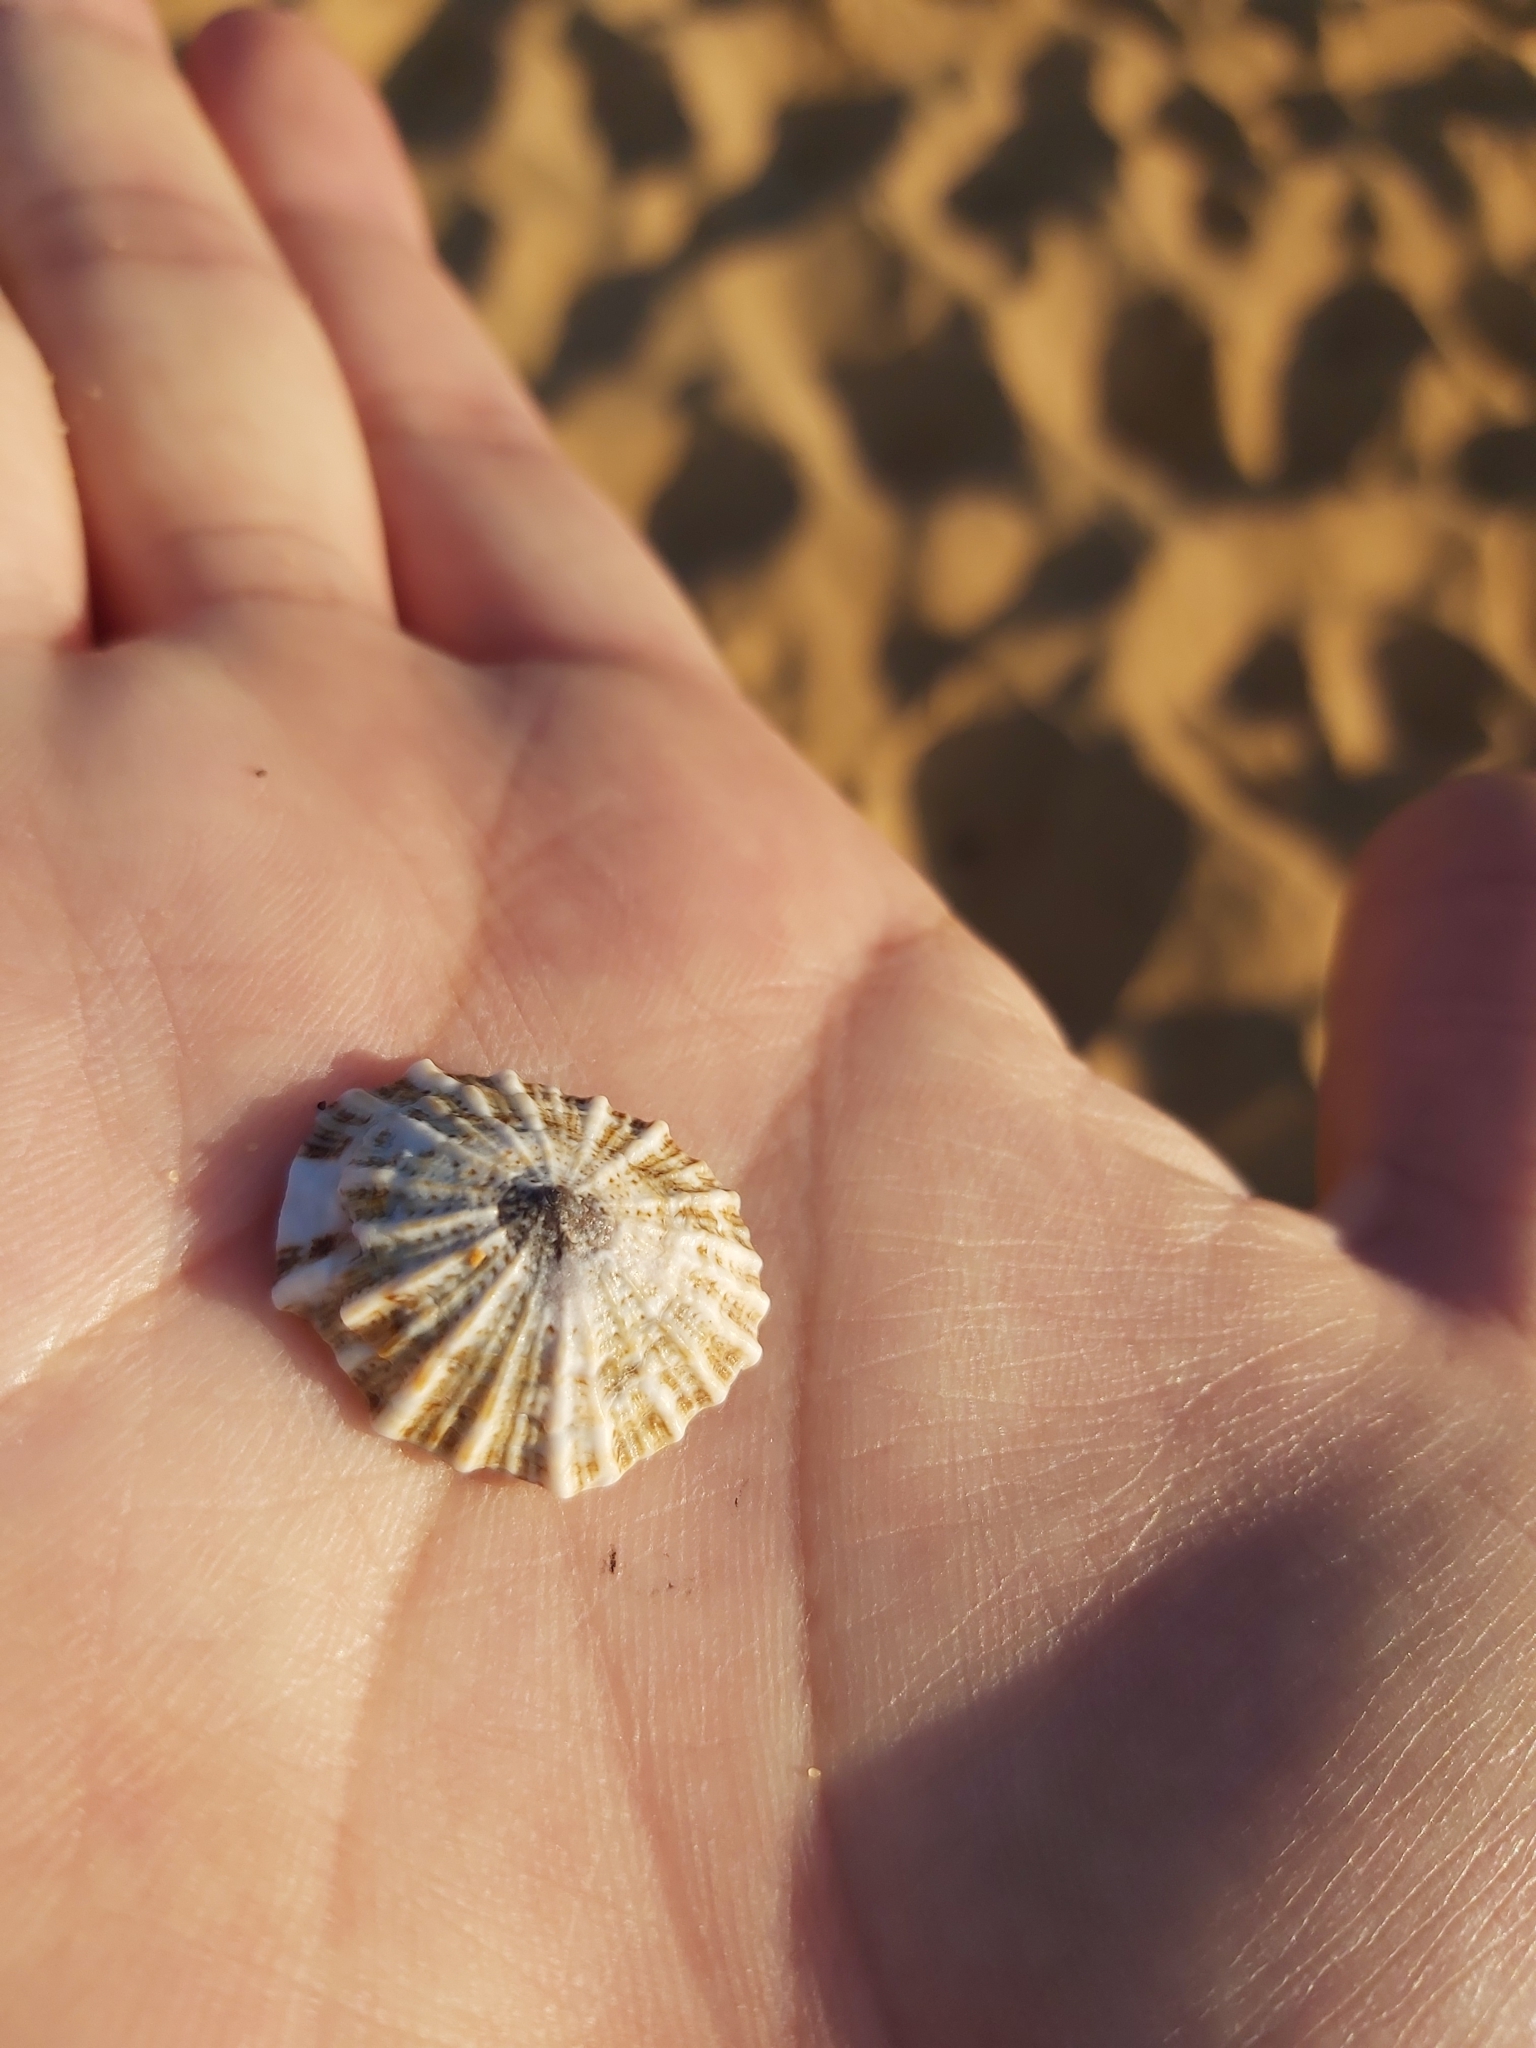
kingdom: Animalia
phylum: Mollusca
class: Gastropoda
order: Siphonariida
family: Siphonariidae
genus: Siphonaria
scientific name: Siphonaria denticulata
